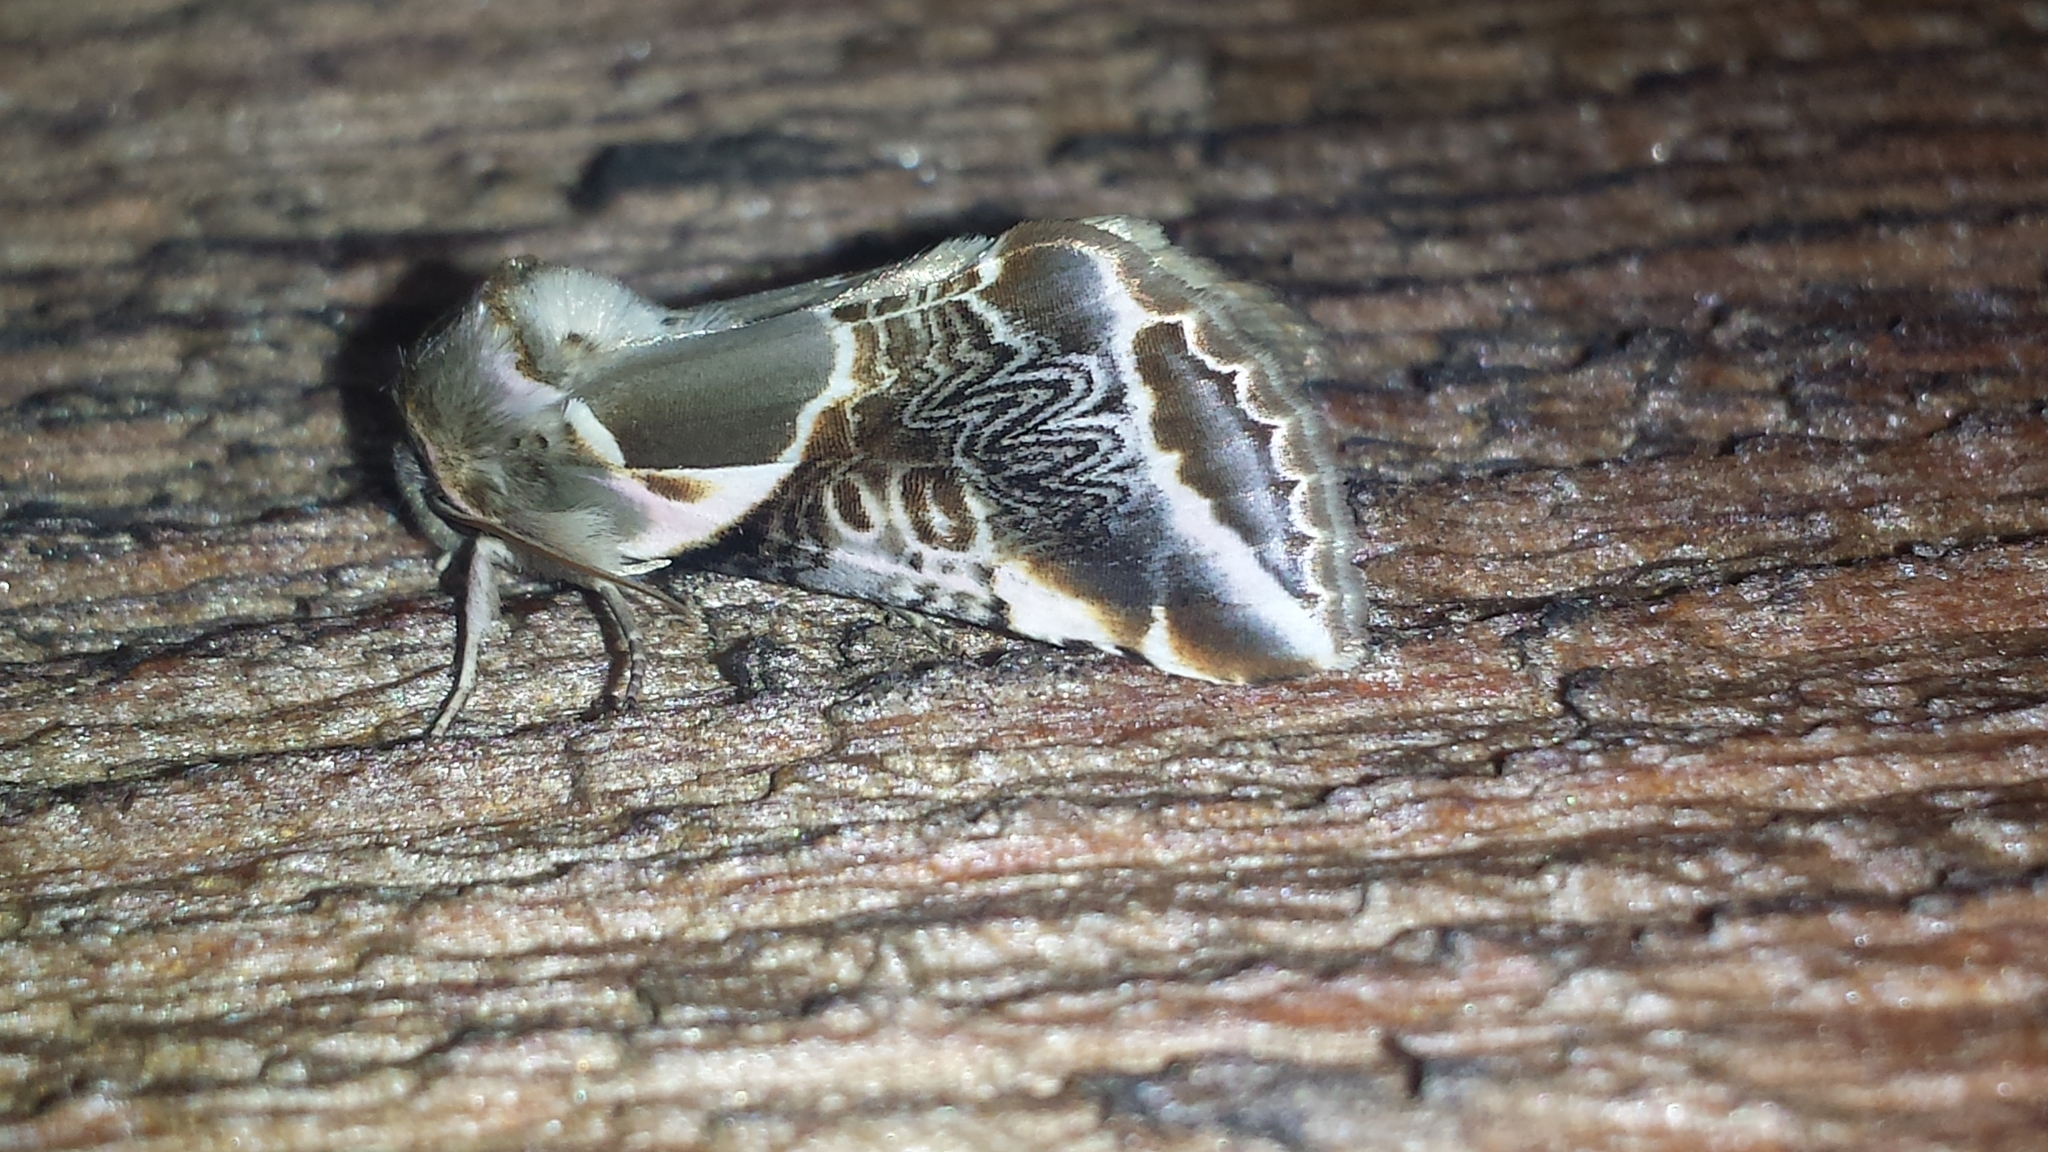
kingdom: Animalia
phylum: Arthropoda
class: Insecta
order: Lepidoptera
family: Drepanidae
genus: Habrosyne
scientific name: Habrosyne scripta
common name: Lettered habrosyne moth
